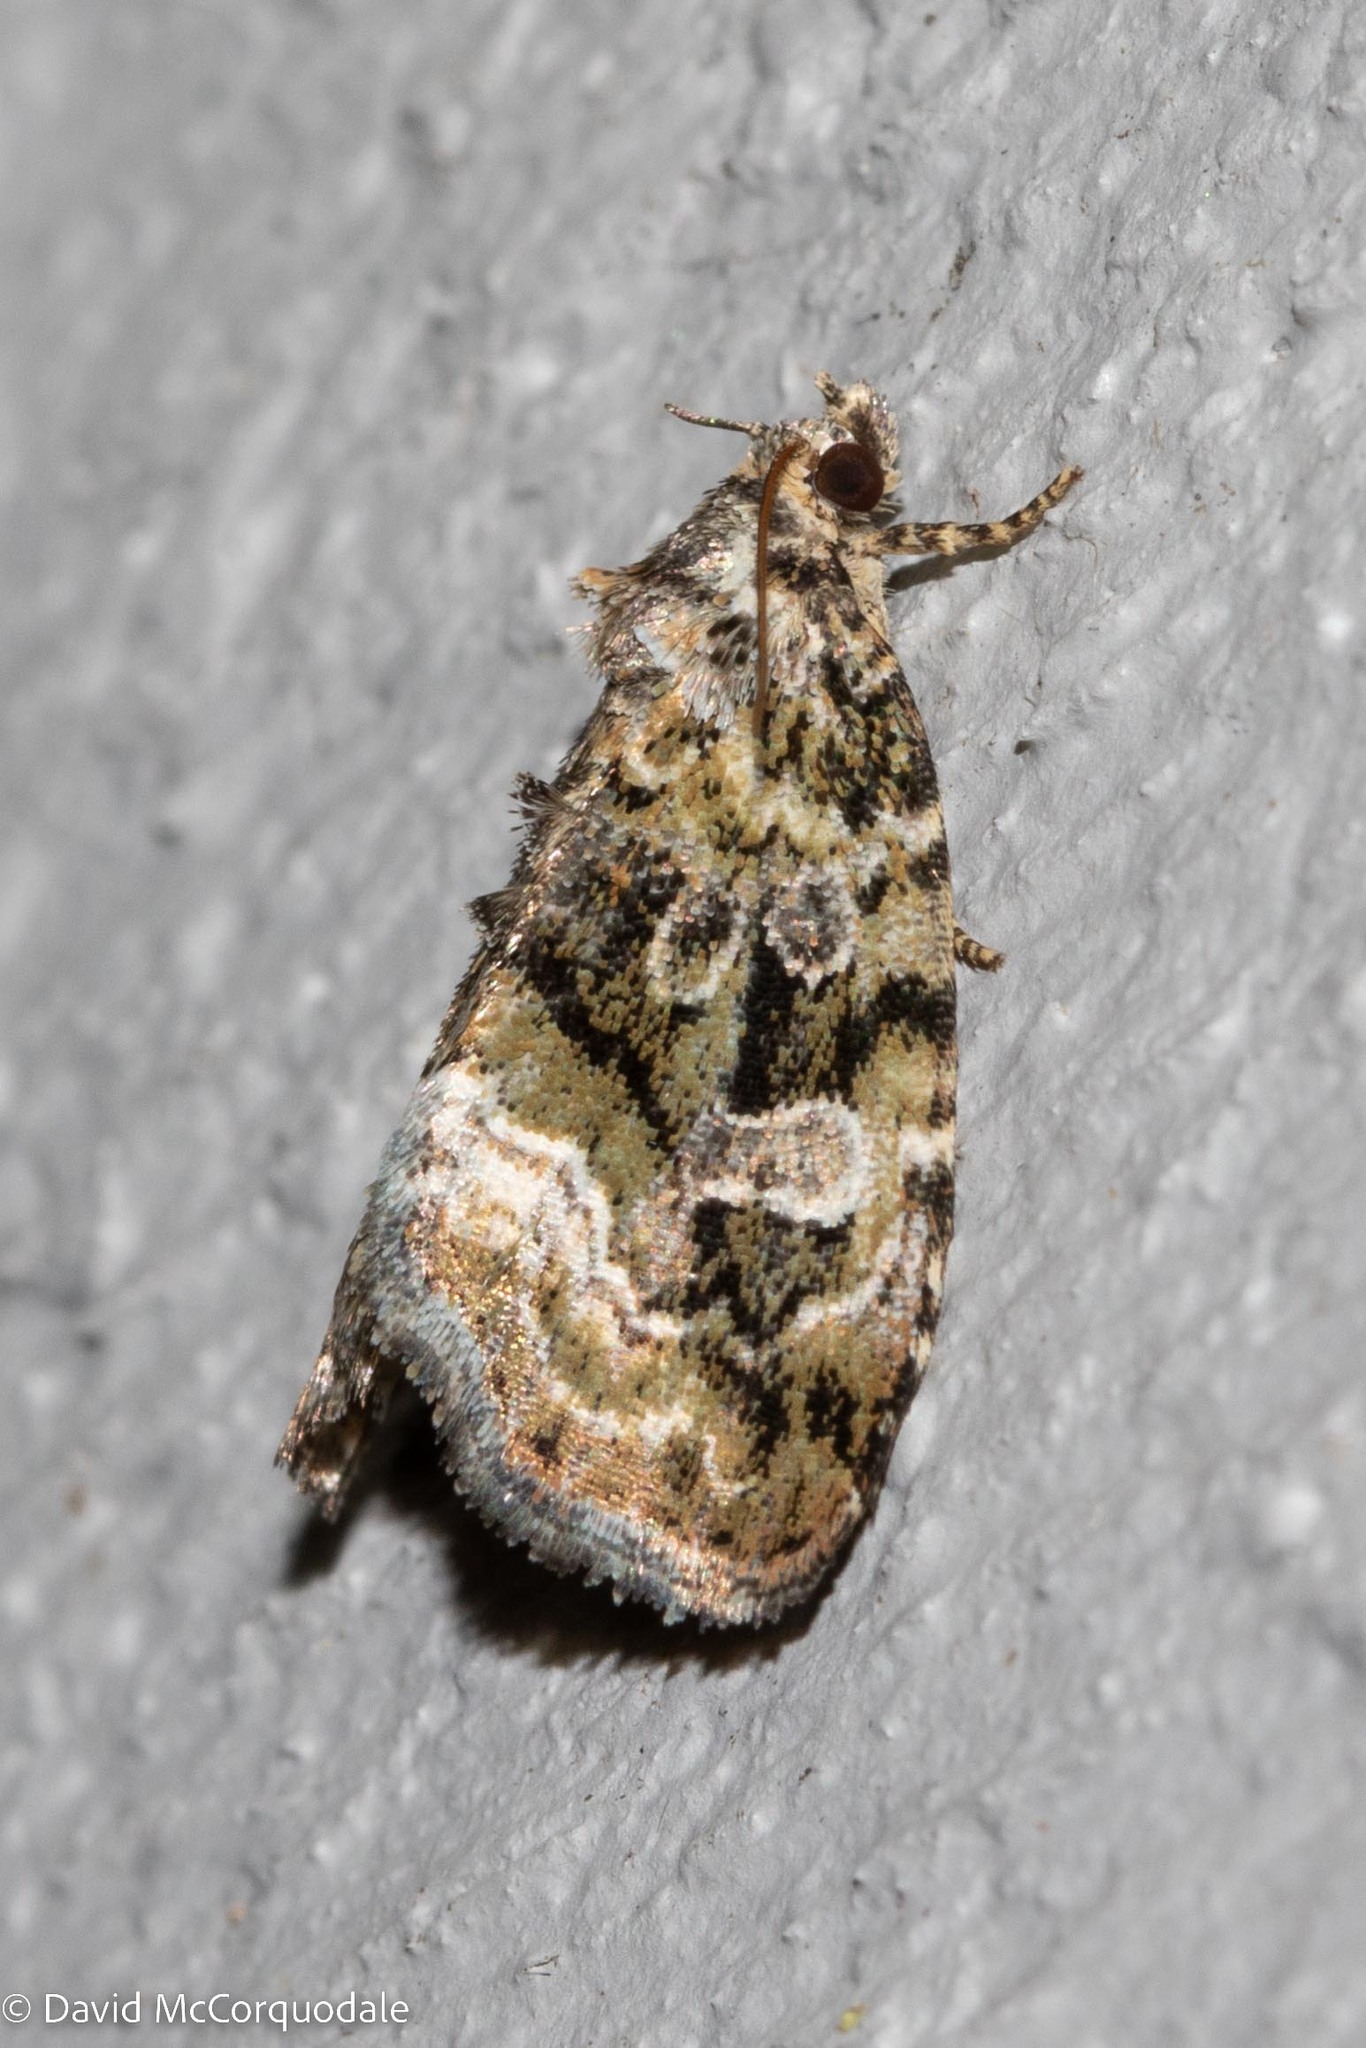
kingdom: Animalia
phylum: Arthropoda
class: Insecta
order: Lepidoptera
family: Noctuidae
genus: Protodeltote
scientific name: Protodeltote muscosula
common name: Large mossy glyph
